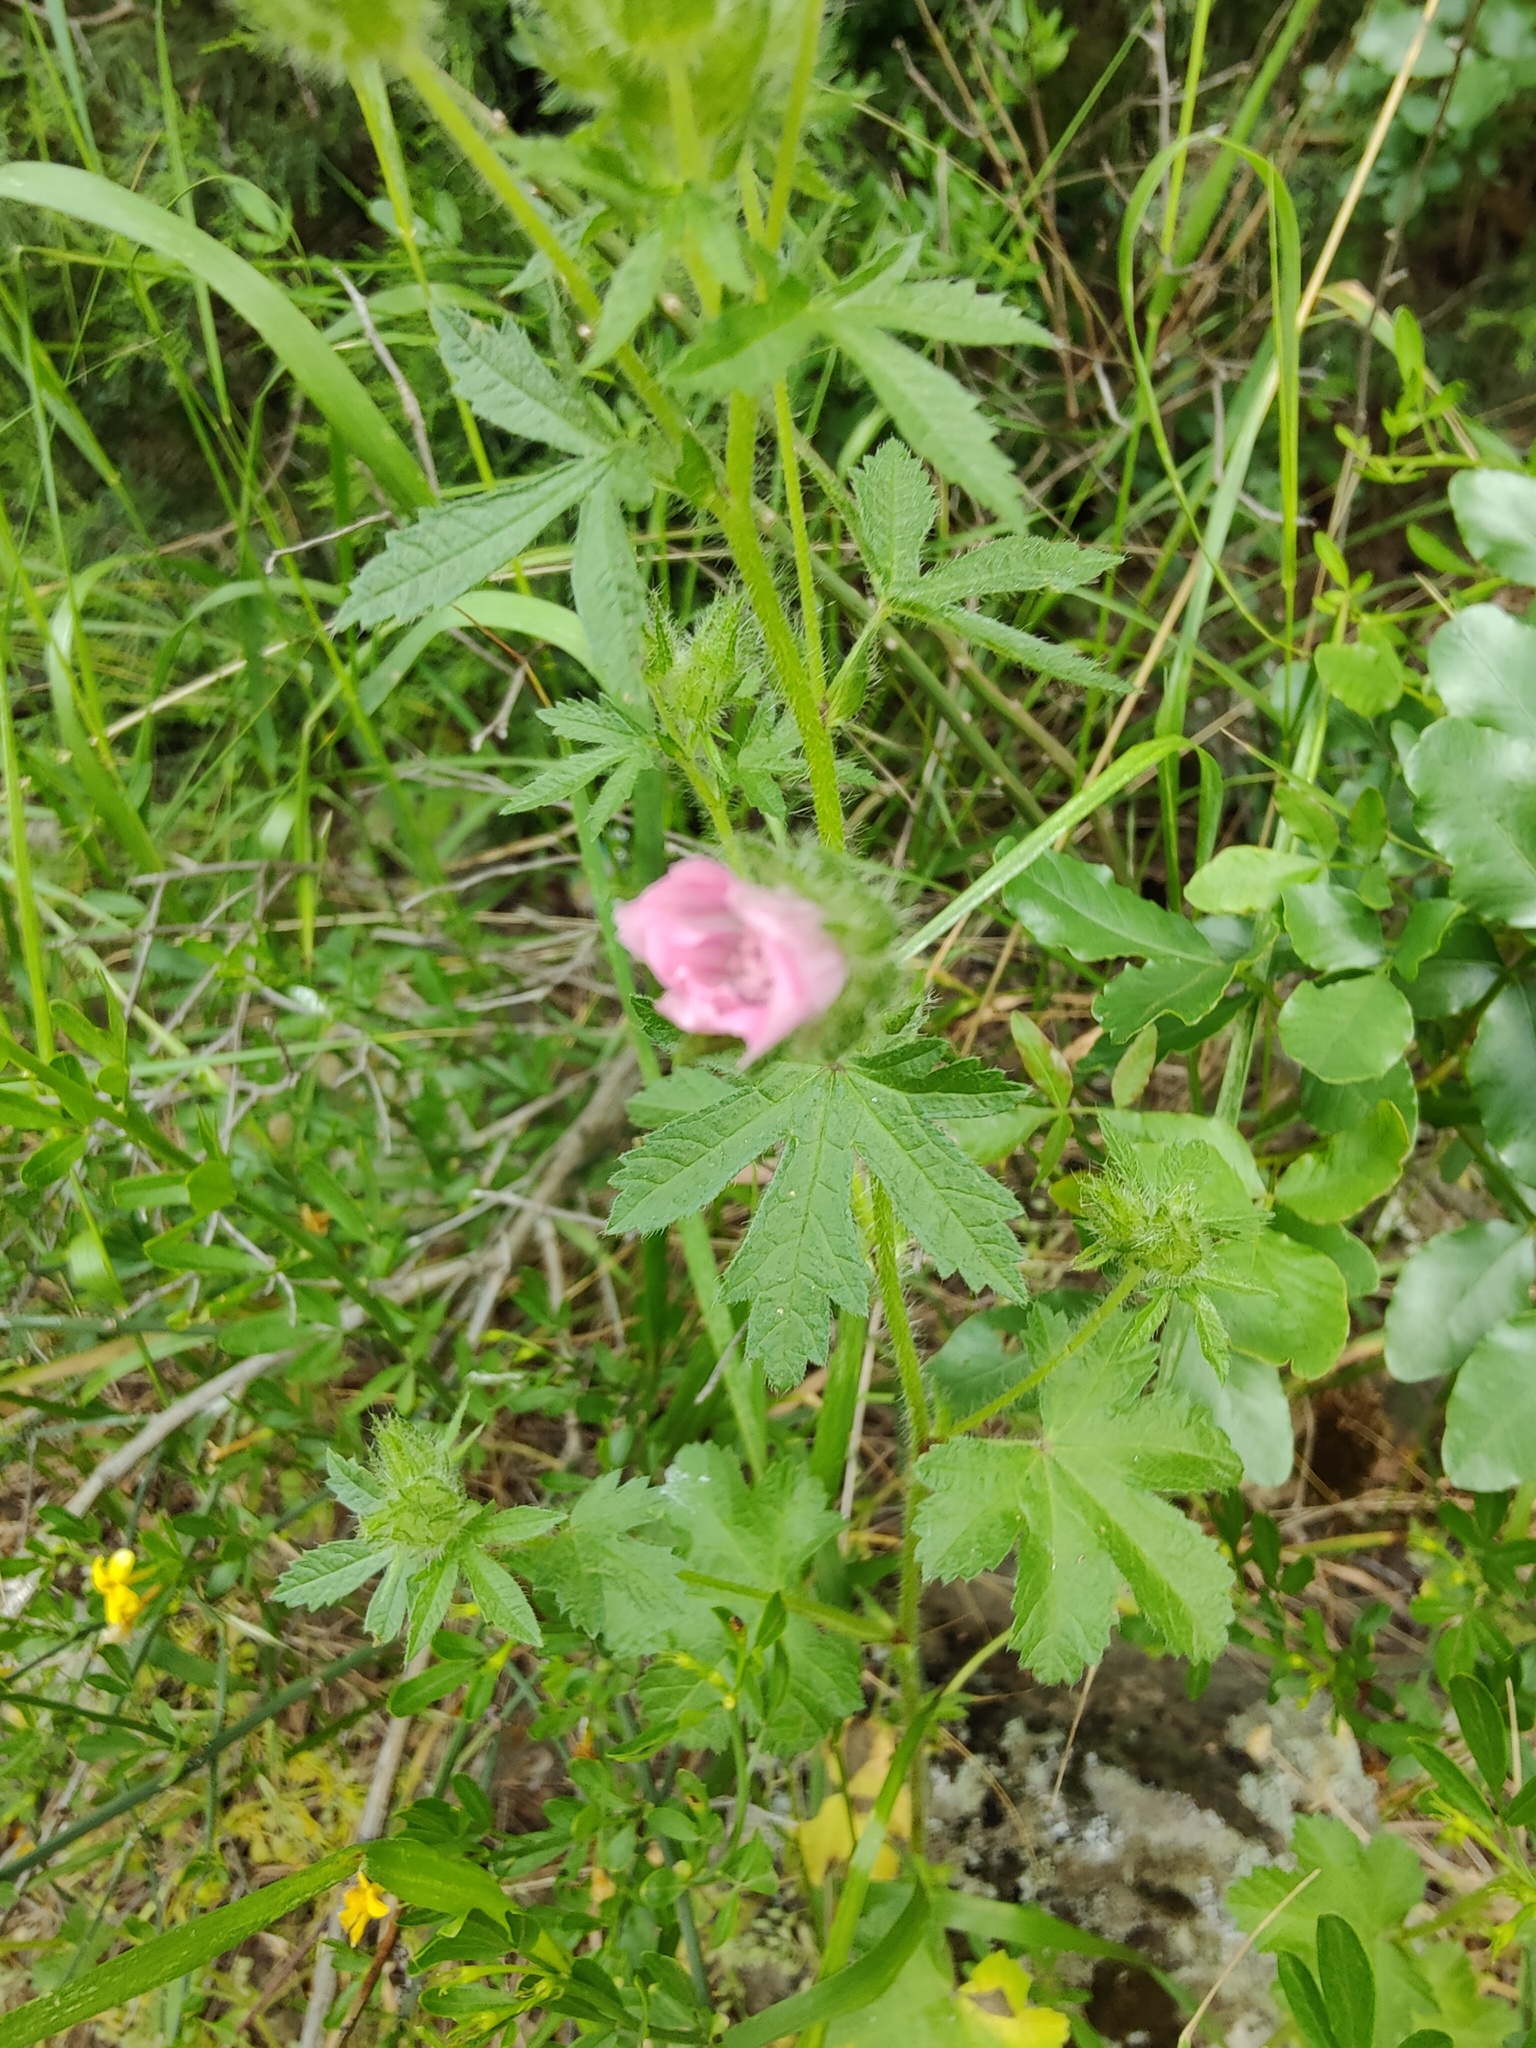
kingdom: Plantae
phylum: Tracheophyta
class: Magnoliopsida
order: Malvales
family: Malvaceae
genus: Althaea
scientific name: Althaea hirsuta
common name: Rough marsh-mallow
